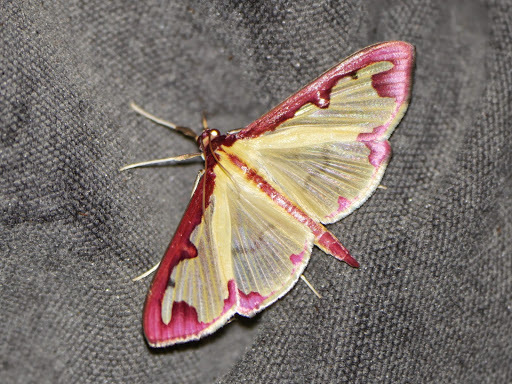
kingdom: Animalia
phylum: Arthropoda
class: Insecta
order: Lepidoptera
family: Crambidae
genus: Cadarena
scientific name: Cadarena pudoraria
